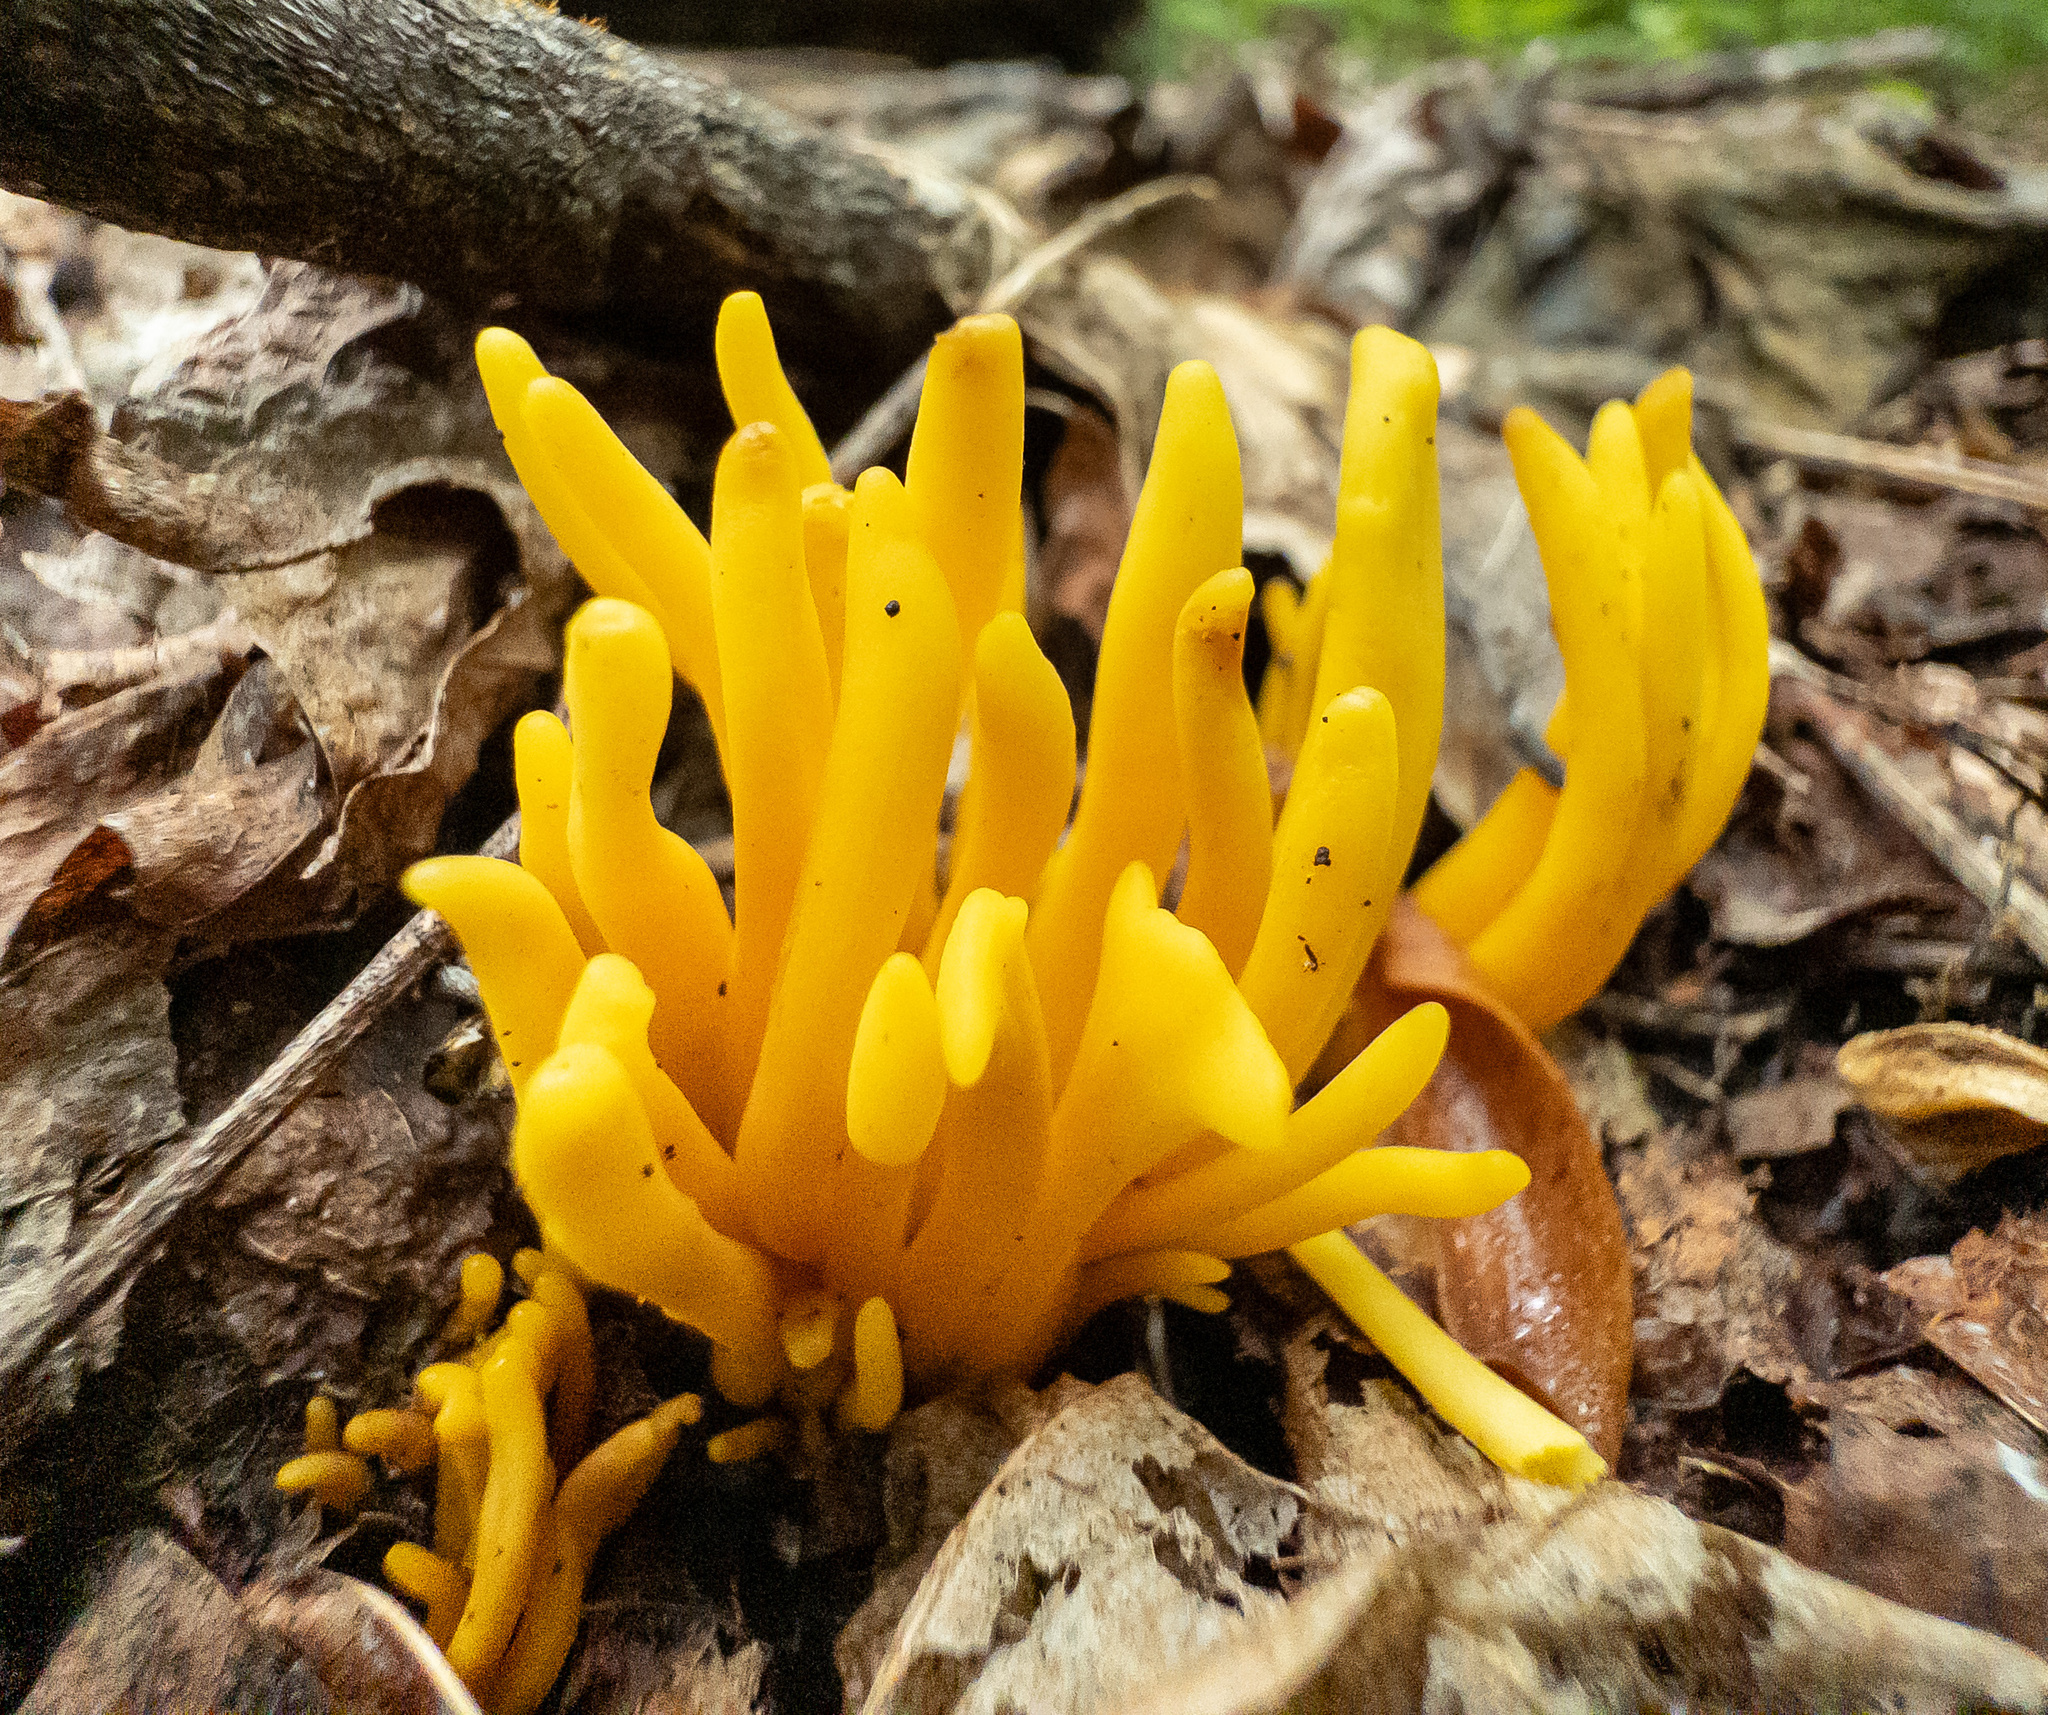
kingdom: Fungi
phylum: Basidiomycota
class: Agaricomycetes
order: Agaricales
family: Clavariaceae
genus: Clavulinopsis
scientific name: Clavulinopsis fusiformis
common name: Golden spindles
